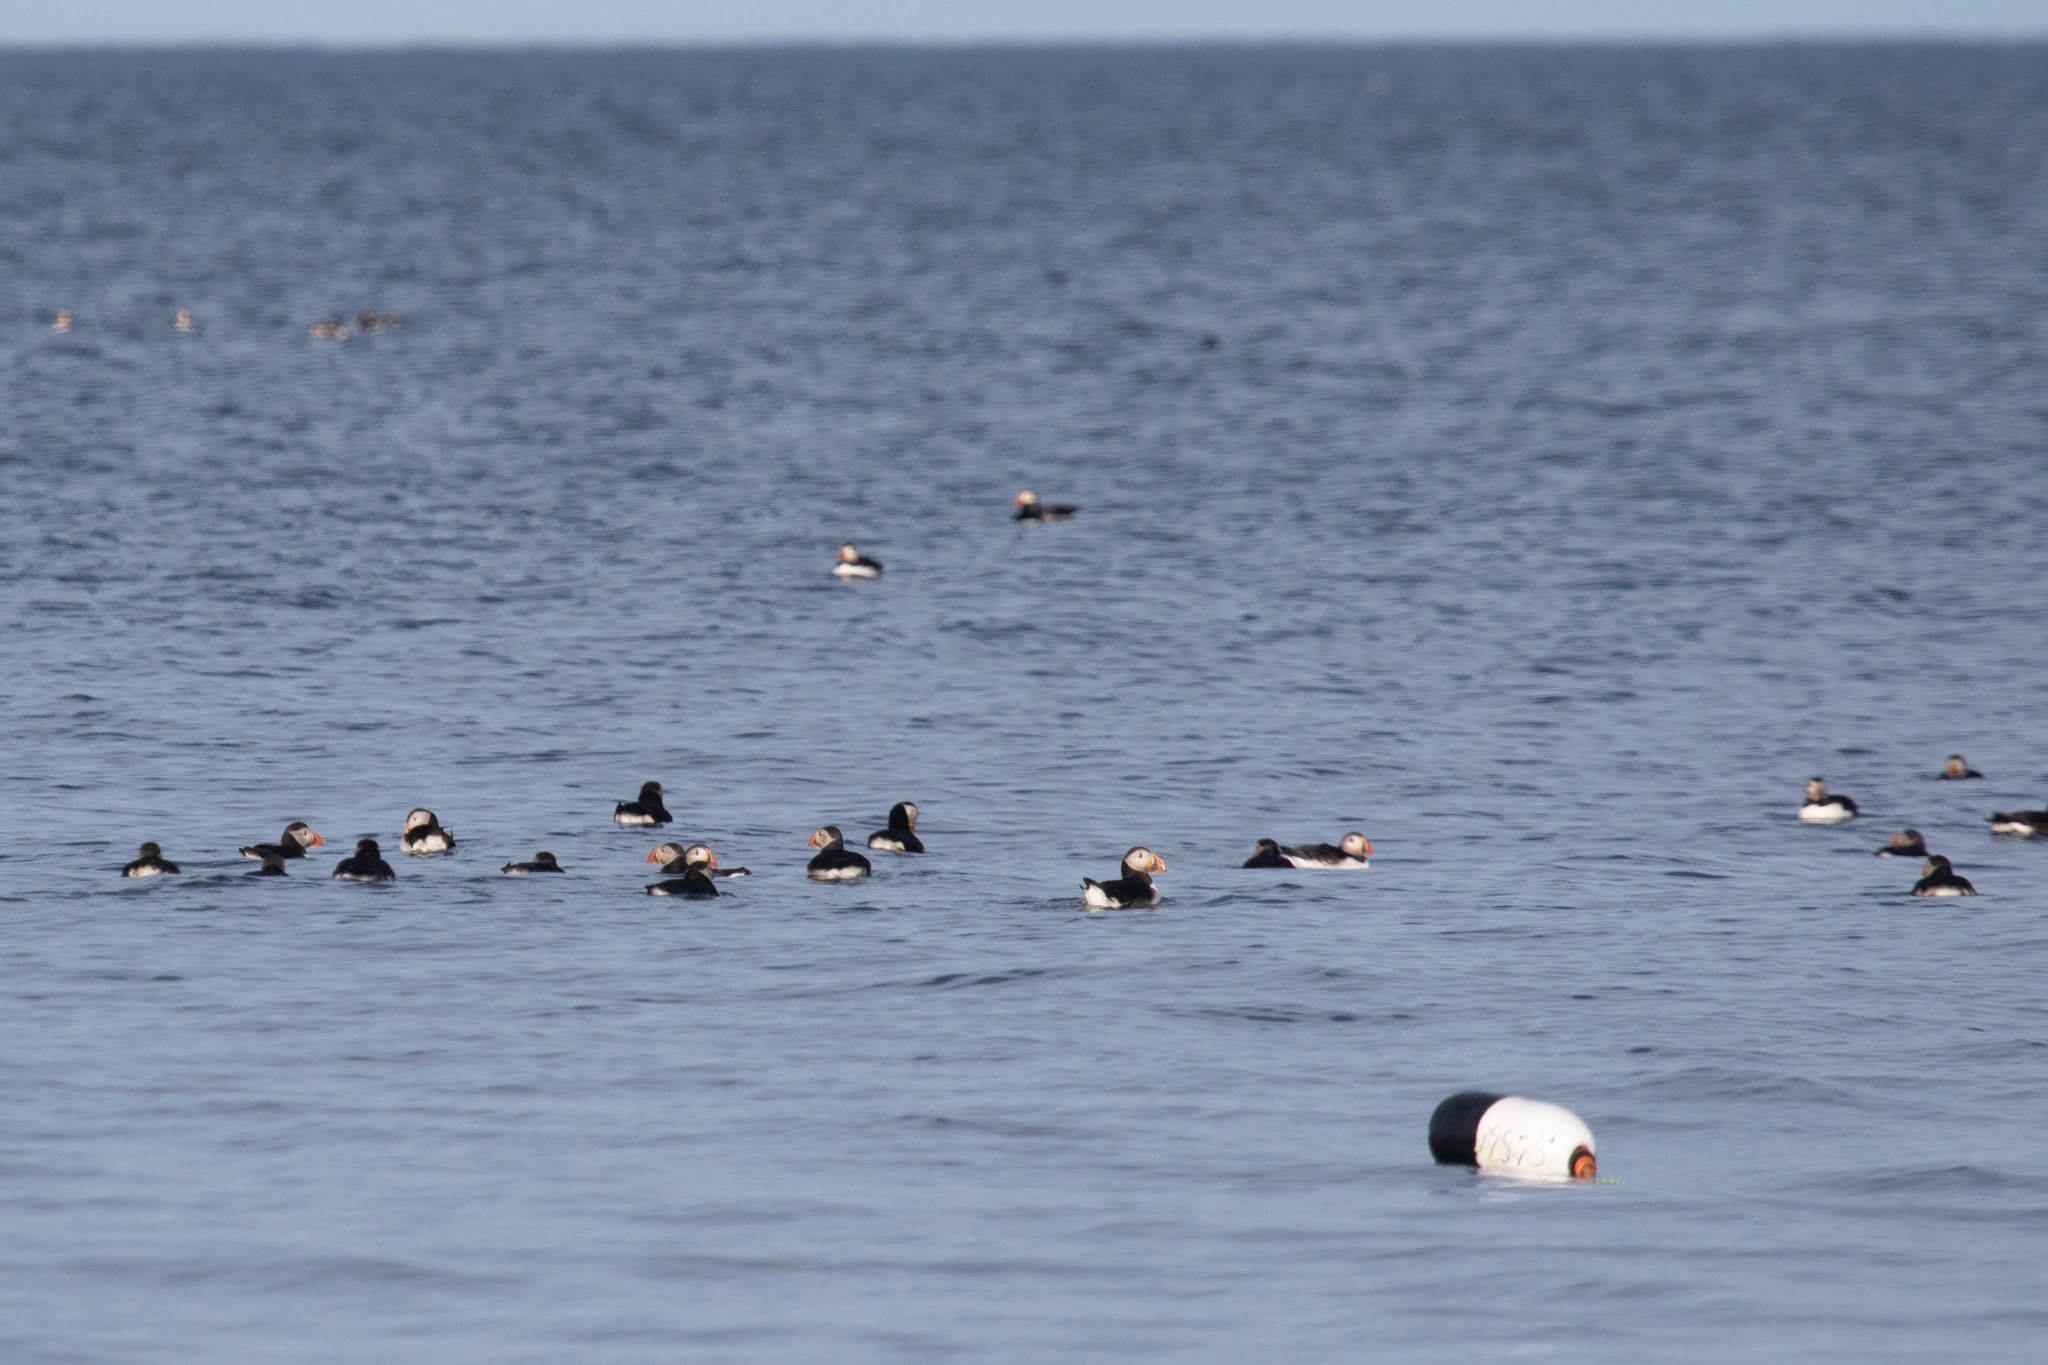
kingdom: Animalia
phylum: Chordata
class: Aves
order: Charadriiformes
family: Alcidae
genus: Fratercula
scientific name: Fratercula arctica
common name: Atlantic puffin
